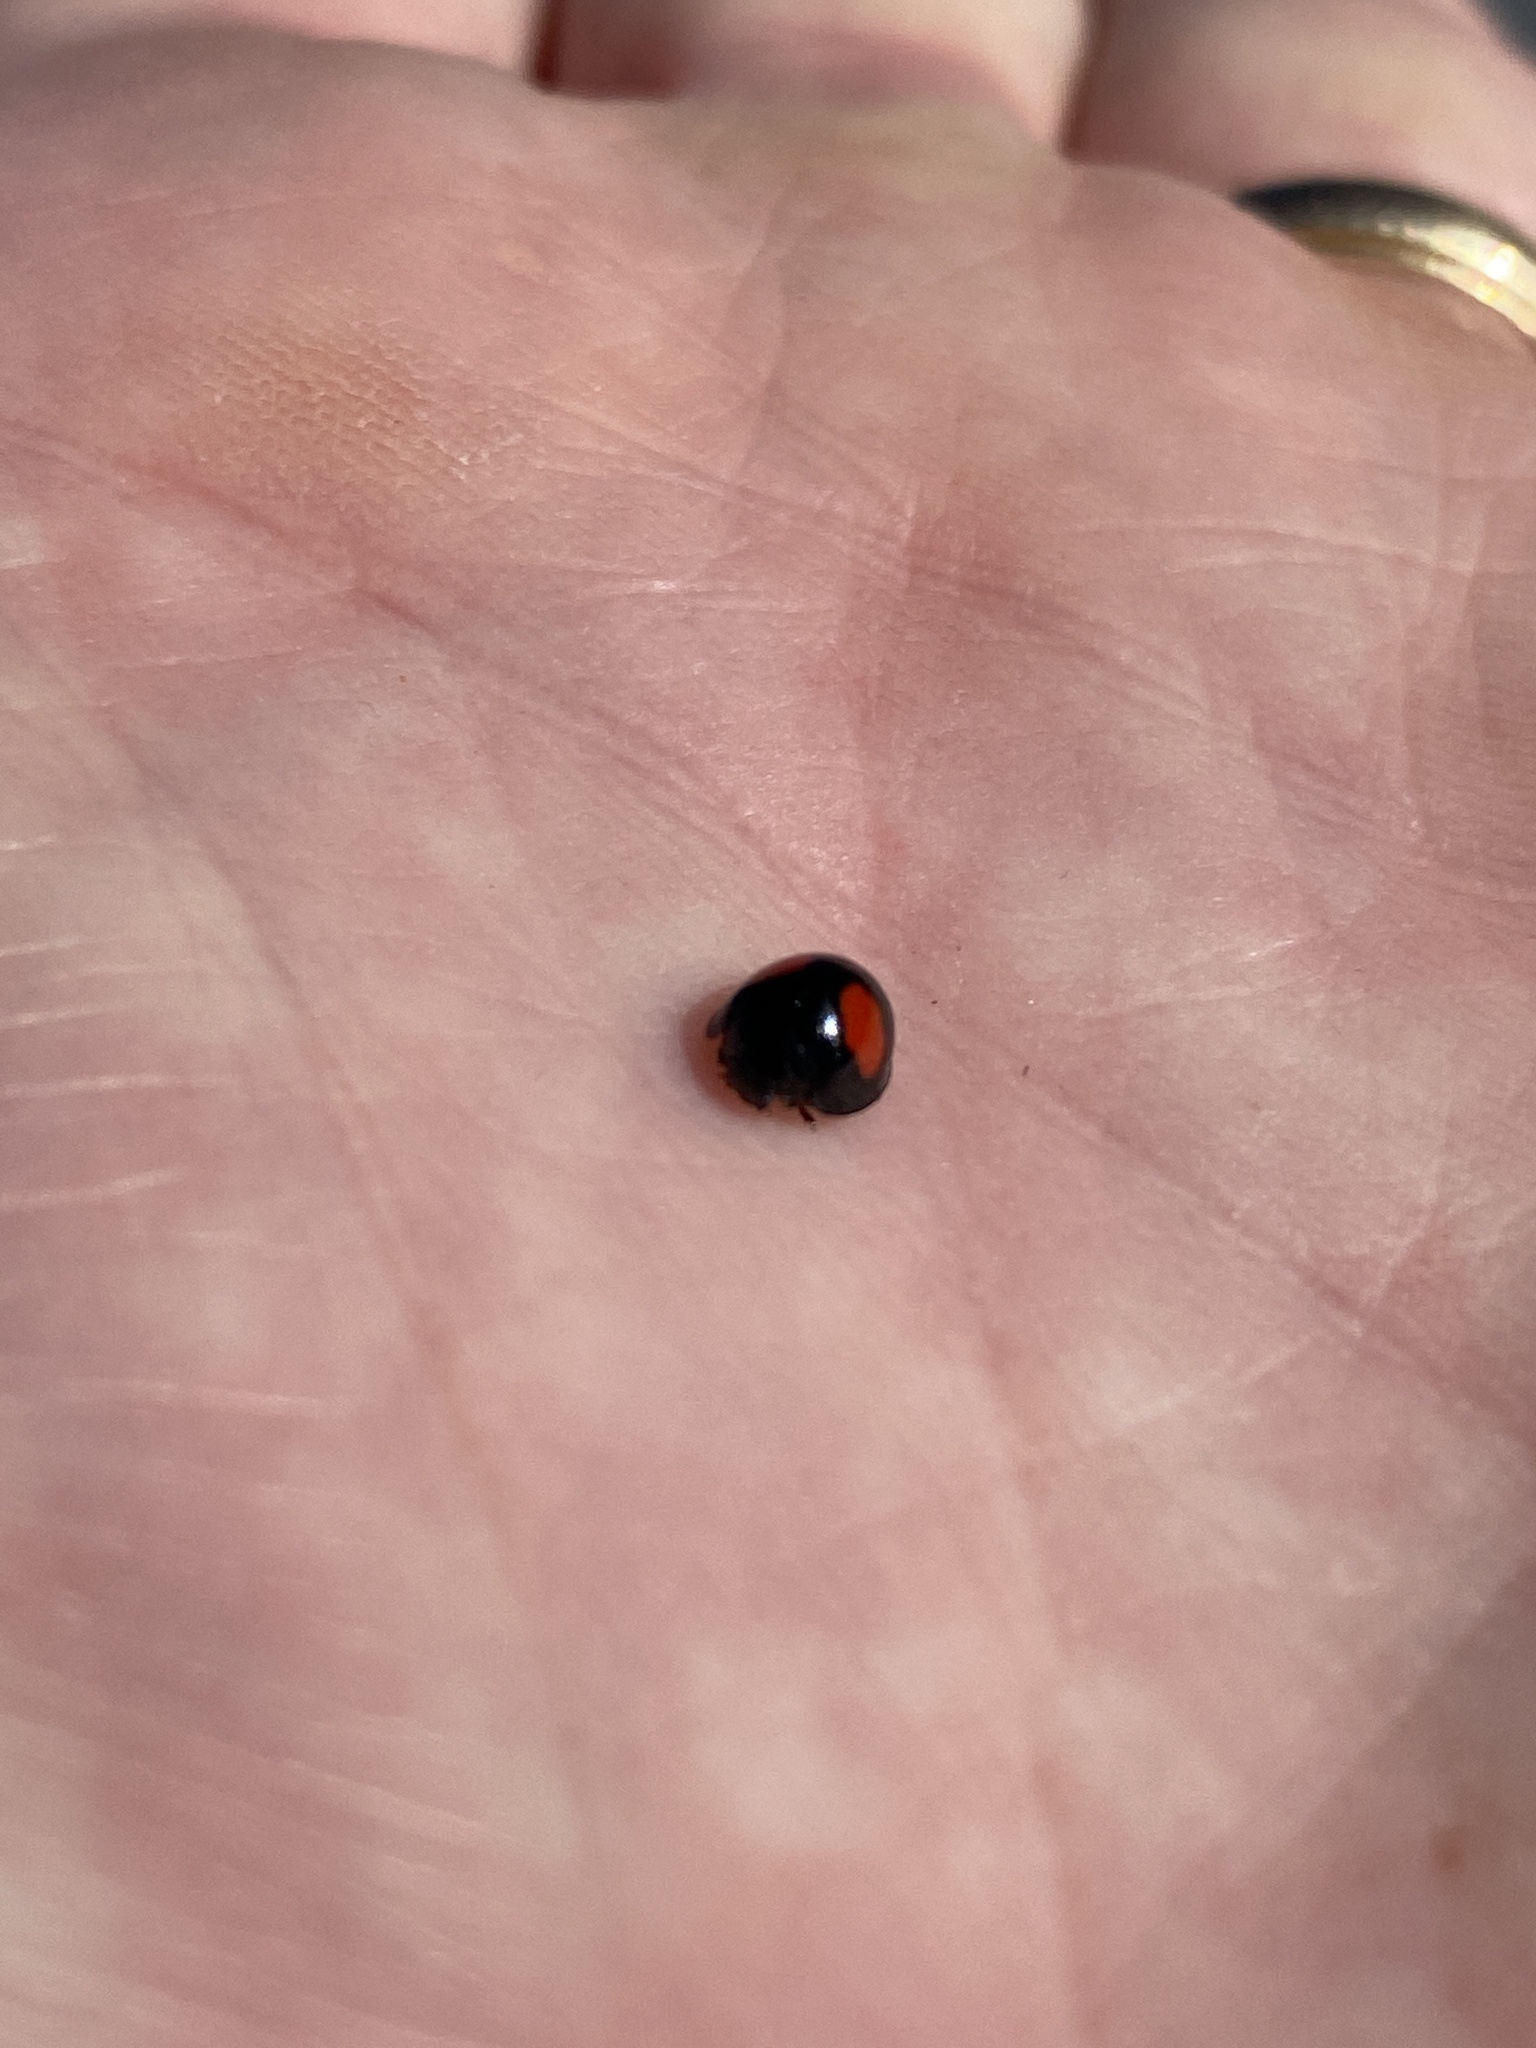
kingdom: Animalia
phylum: Arthropoda
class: Insecta
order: Coleoptera
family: Coccinellidae
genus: Chilocorus
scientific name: Chilocorus cacti
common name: Cactus lady beetle
